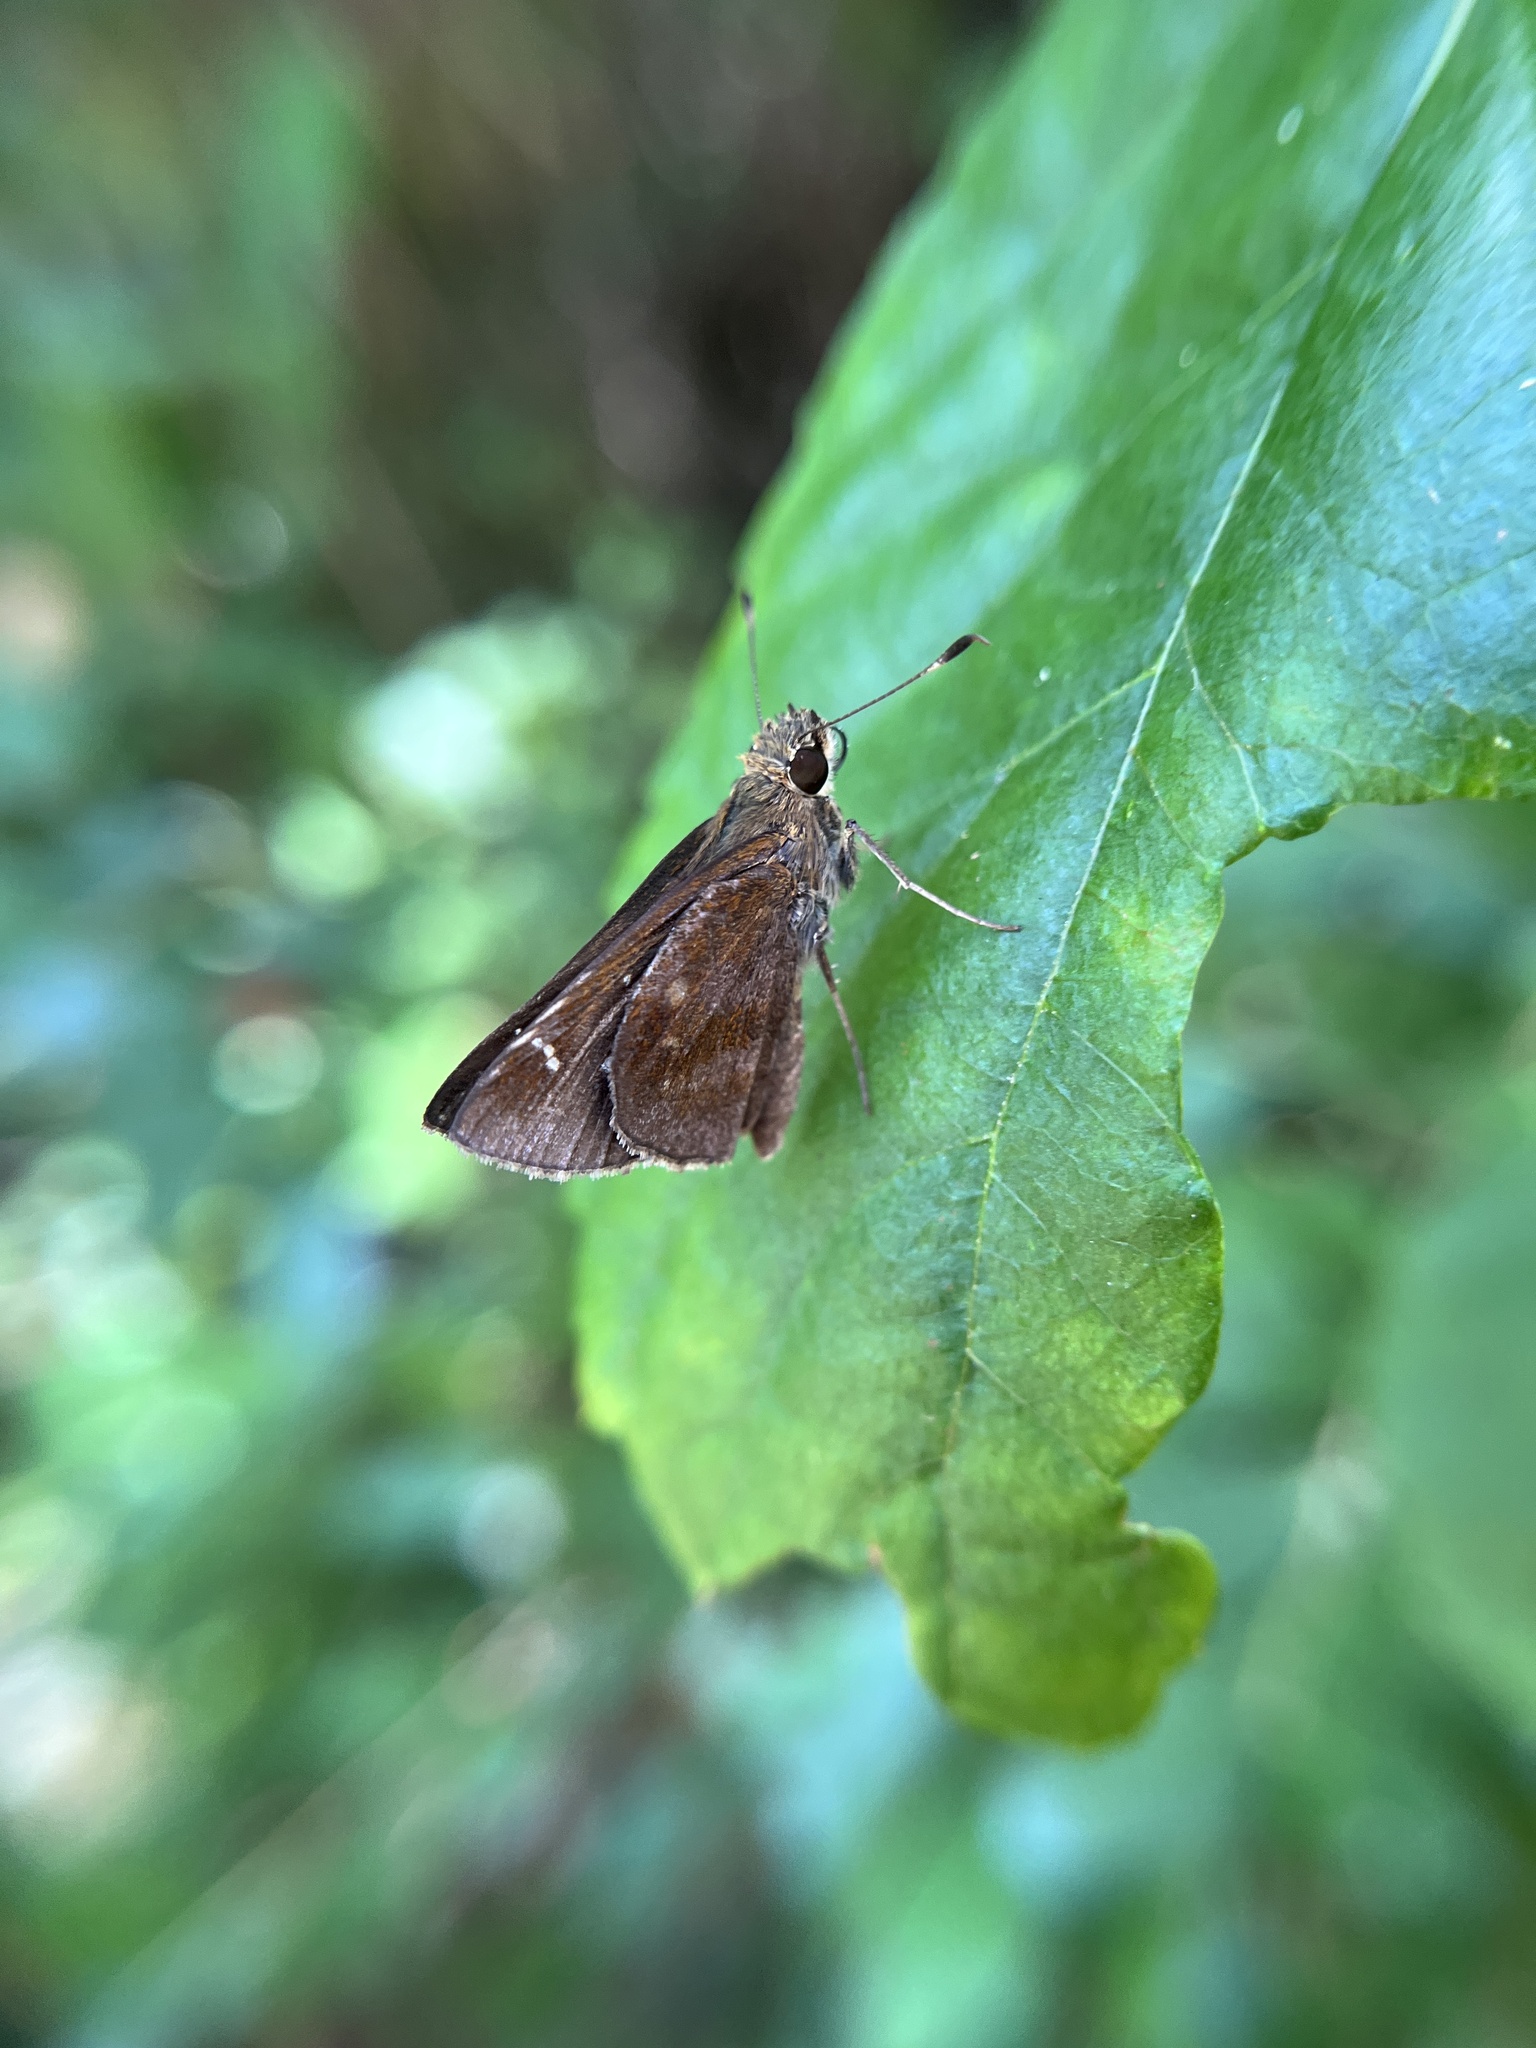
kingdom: Animalia
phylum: Arthropoda
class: Insecta
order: Lepidoptera
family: Hesperiidae
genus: Lerema
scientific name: Lerema accius
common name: Clouded skipper
